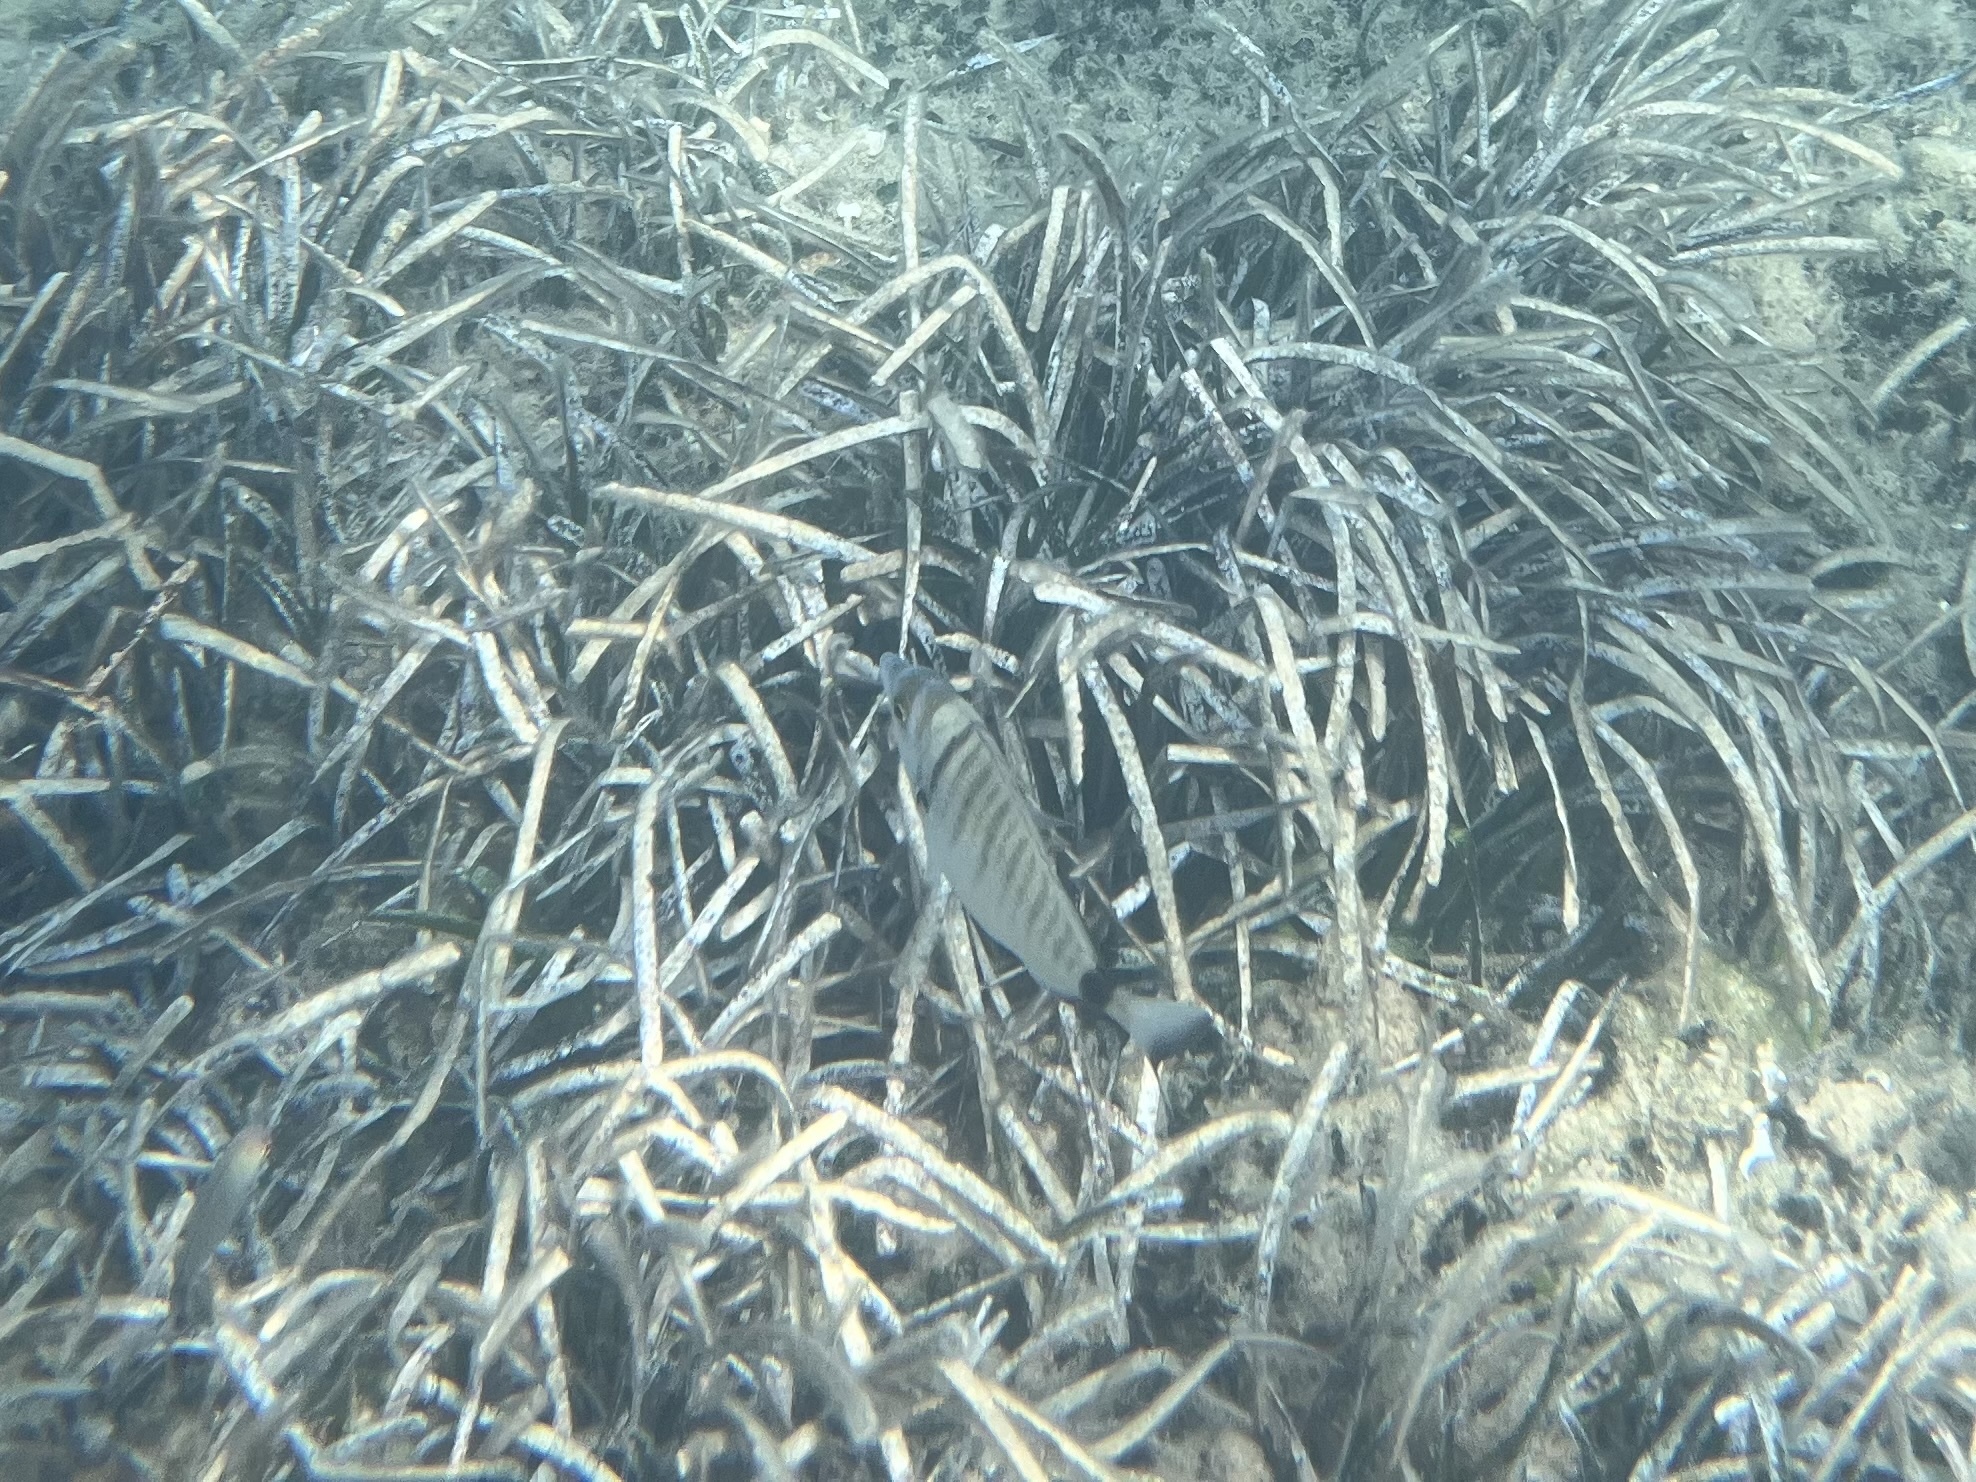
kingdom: Animalia
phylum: Chordata
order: Perciformes
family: Sparidae
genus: Diplodus
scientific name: Diplodus puntazzo
